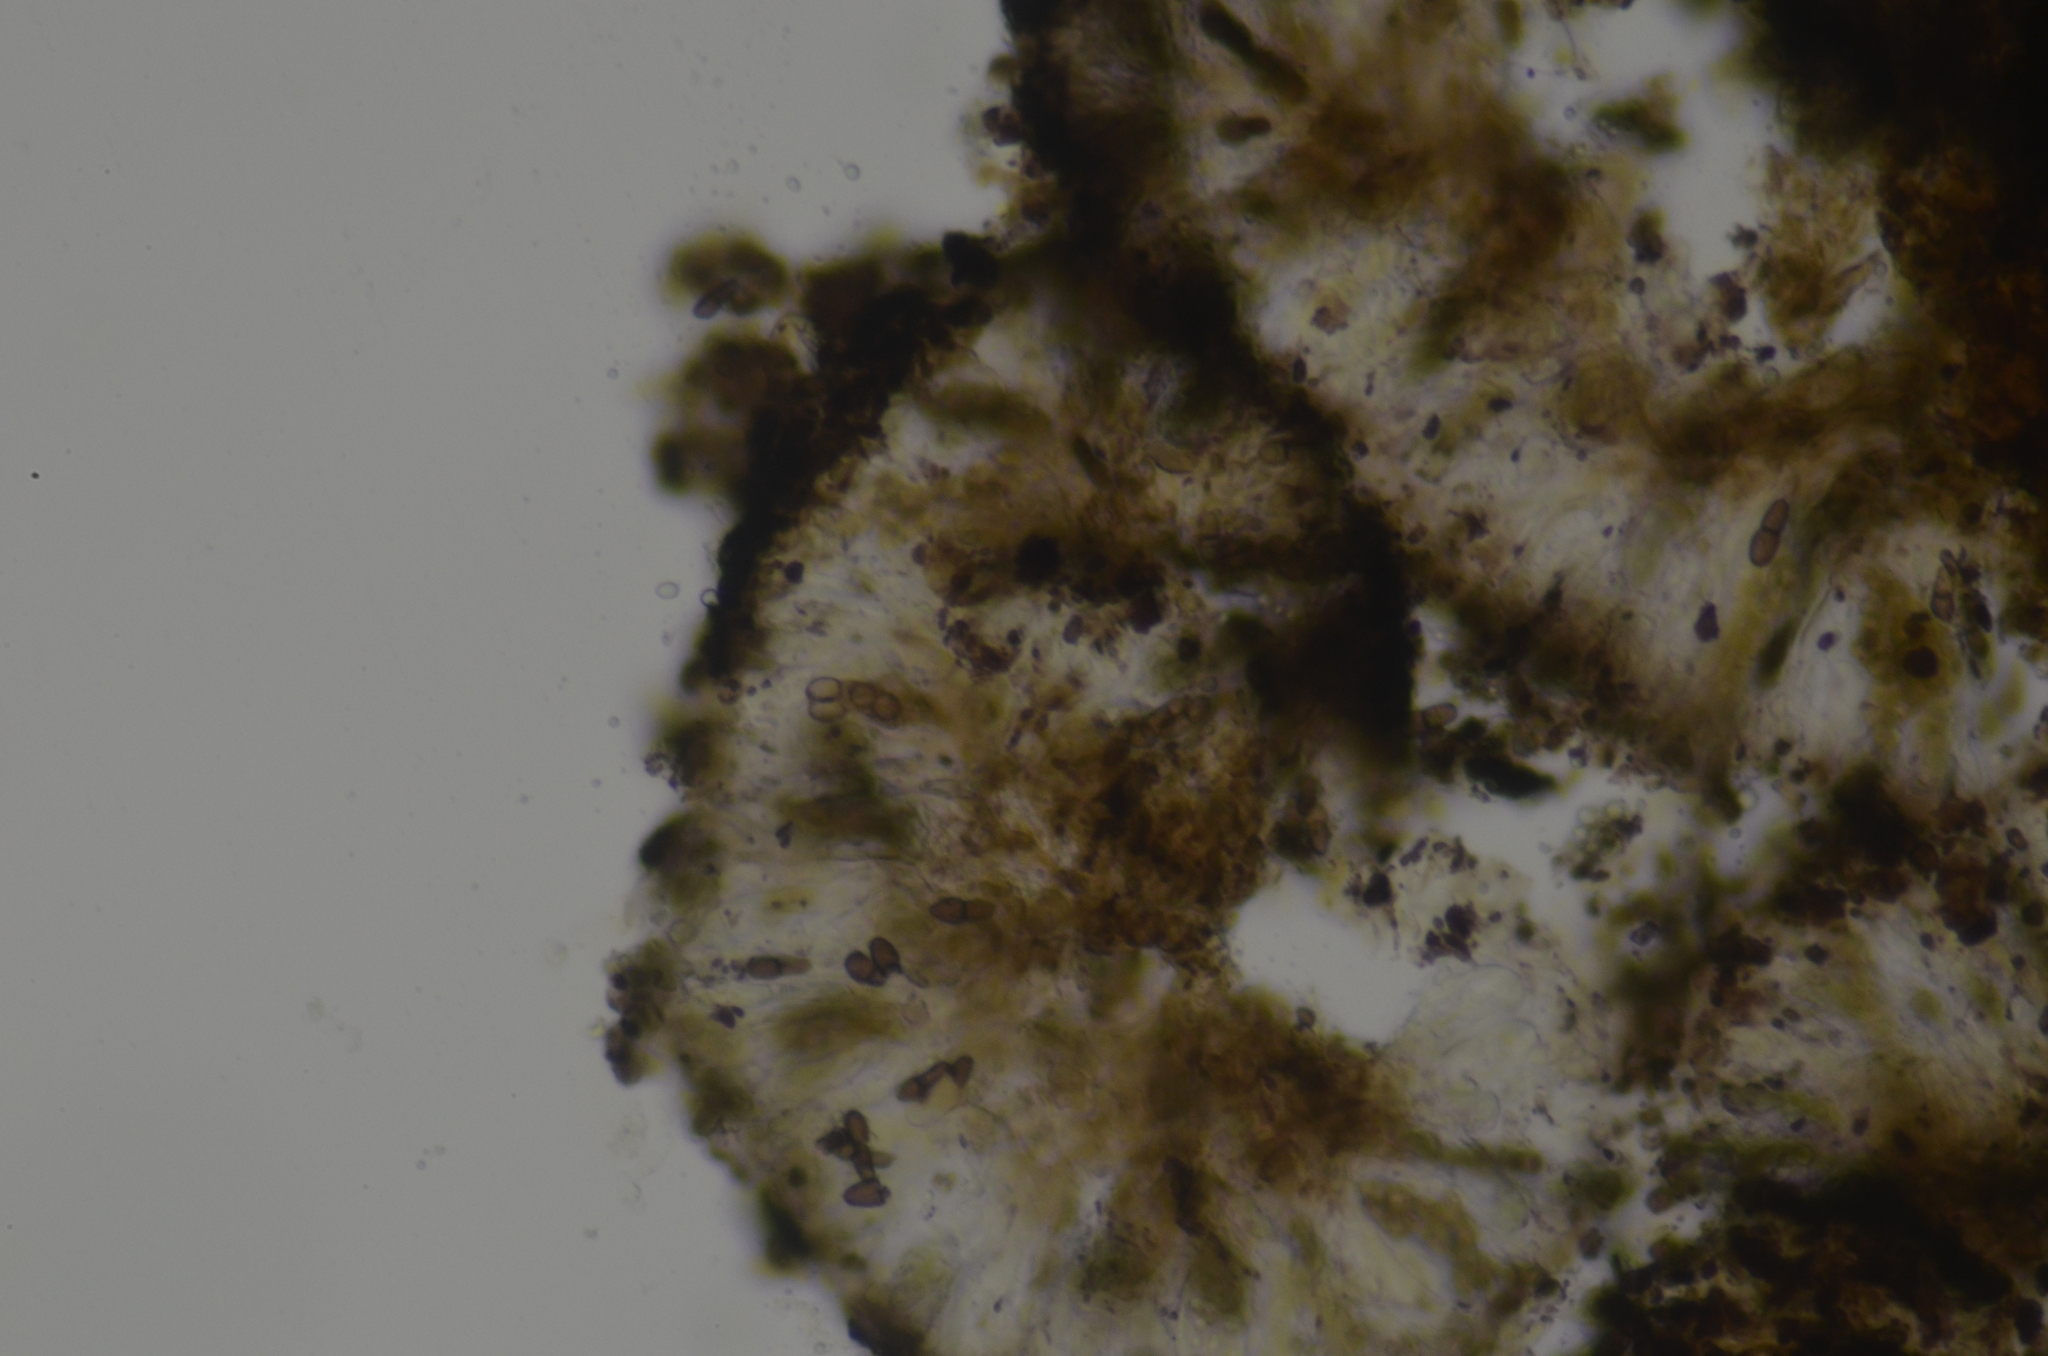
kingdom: Fungi
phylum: Ascomycota
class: Dothideomycetes
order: Abrothallales
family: Abrothallaceae
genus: Abrothallus
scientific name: Abrothallus prodiens
